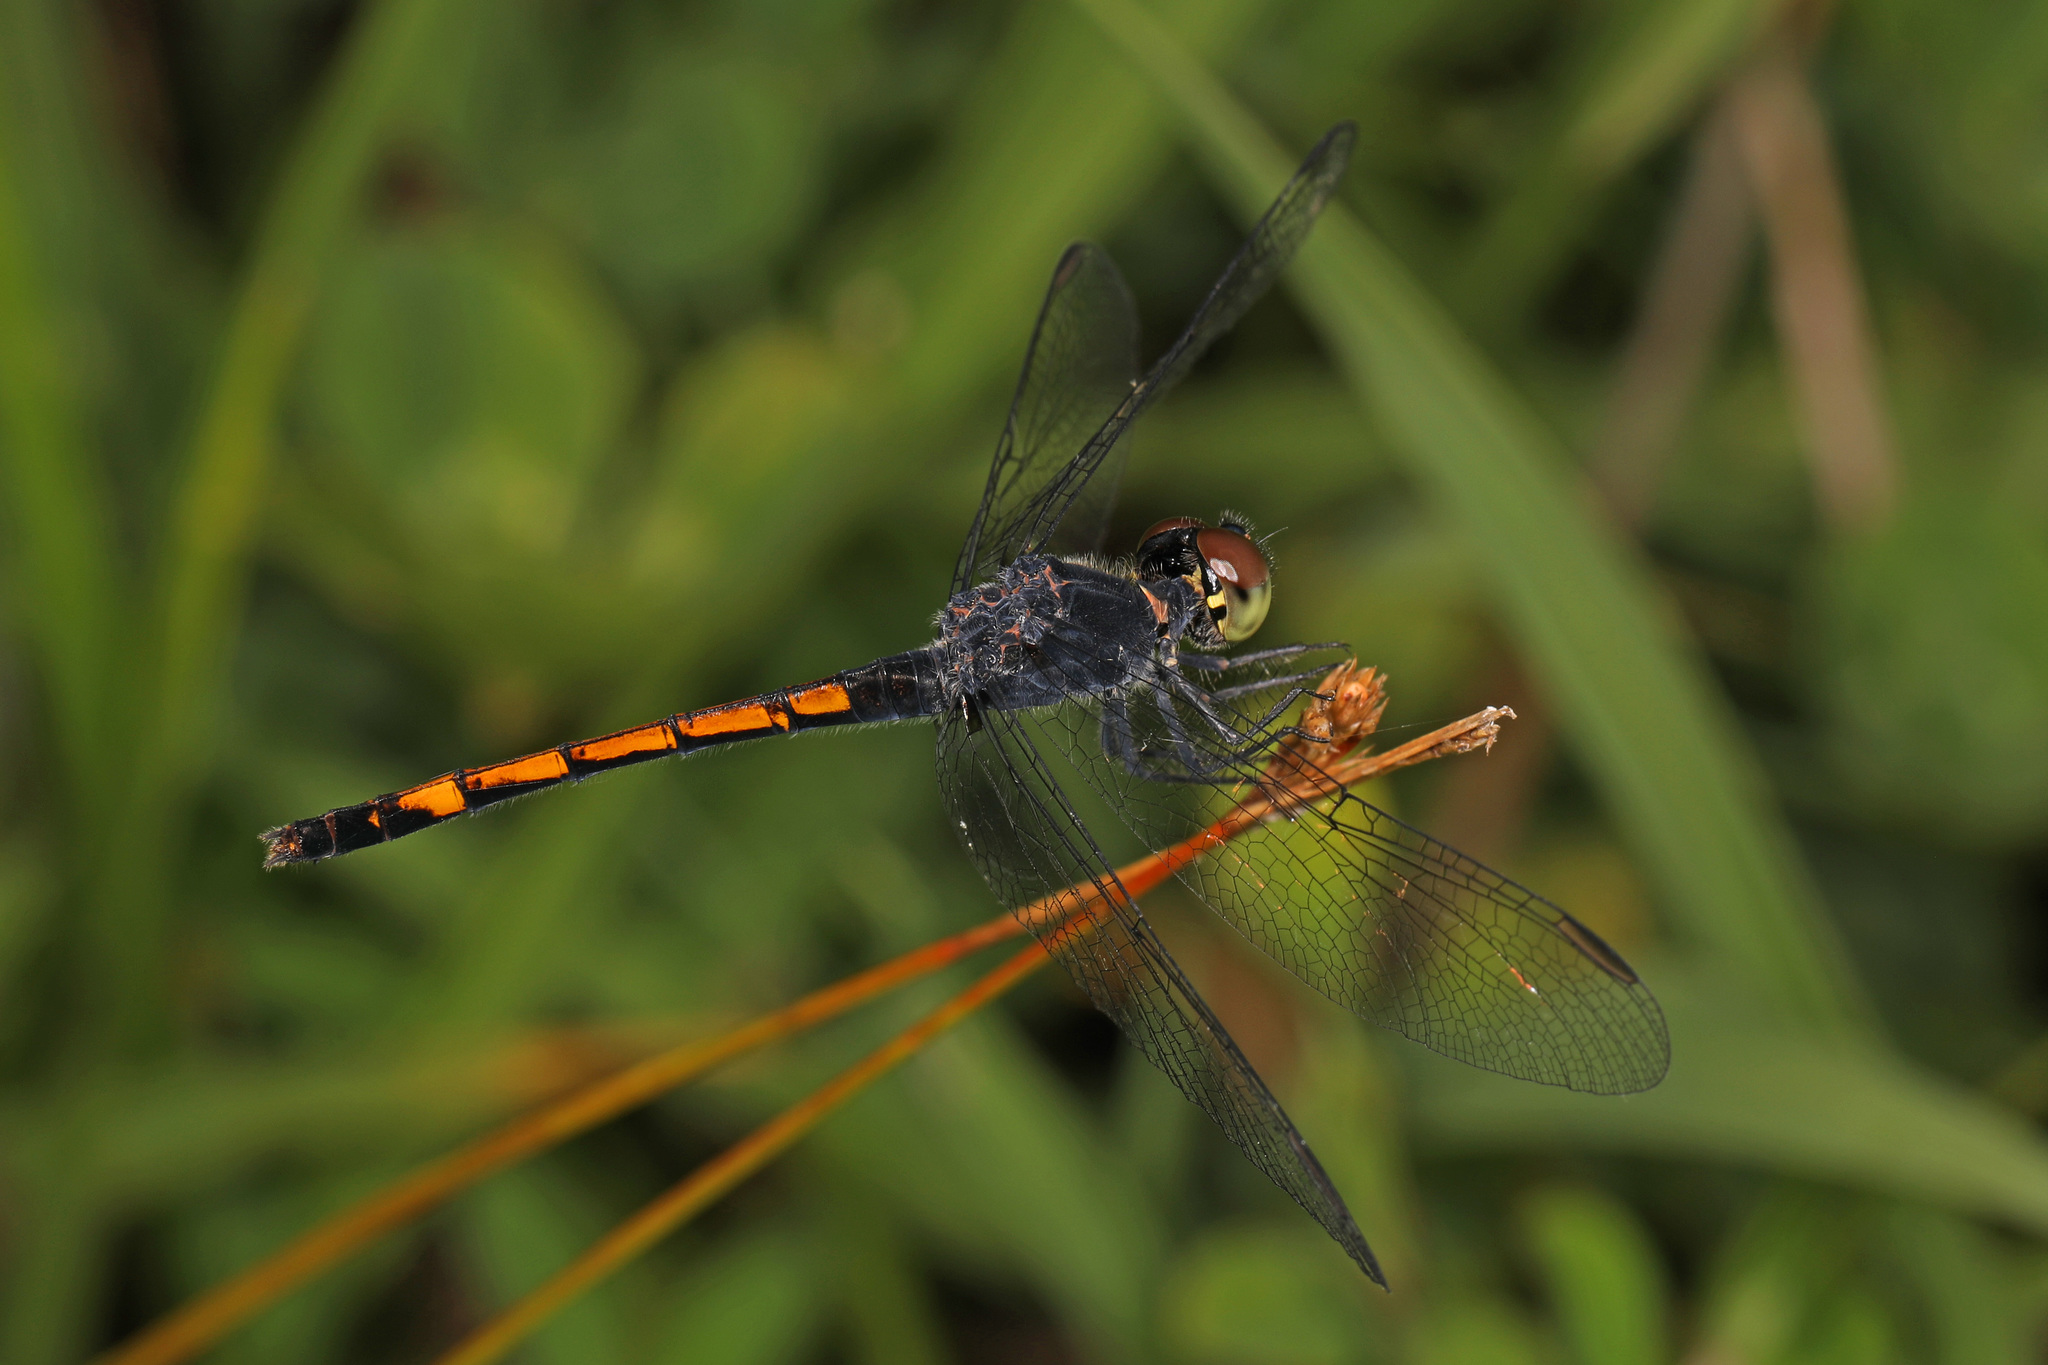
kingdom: Animalia
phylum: Arthropoda
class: Insecta
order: Odonata
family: Libellulidae
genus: Erythrodiplax
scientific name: Erythrodiplax berenice
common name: Seaside dragonlet
